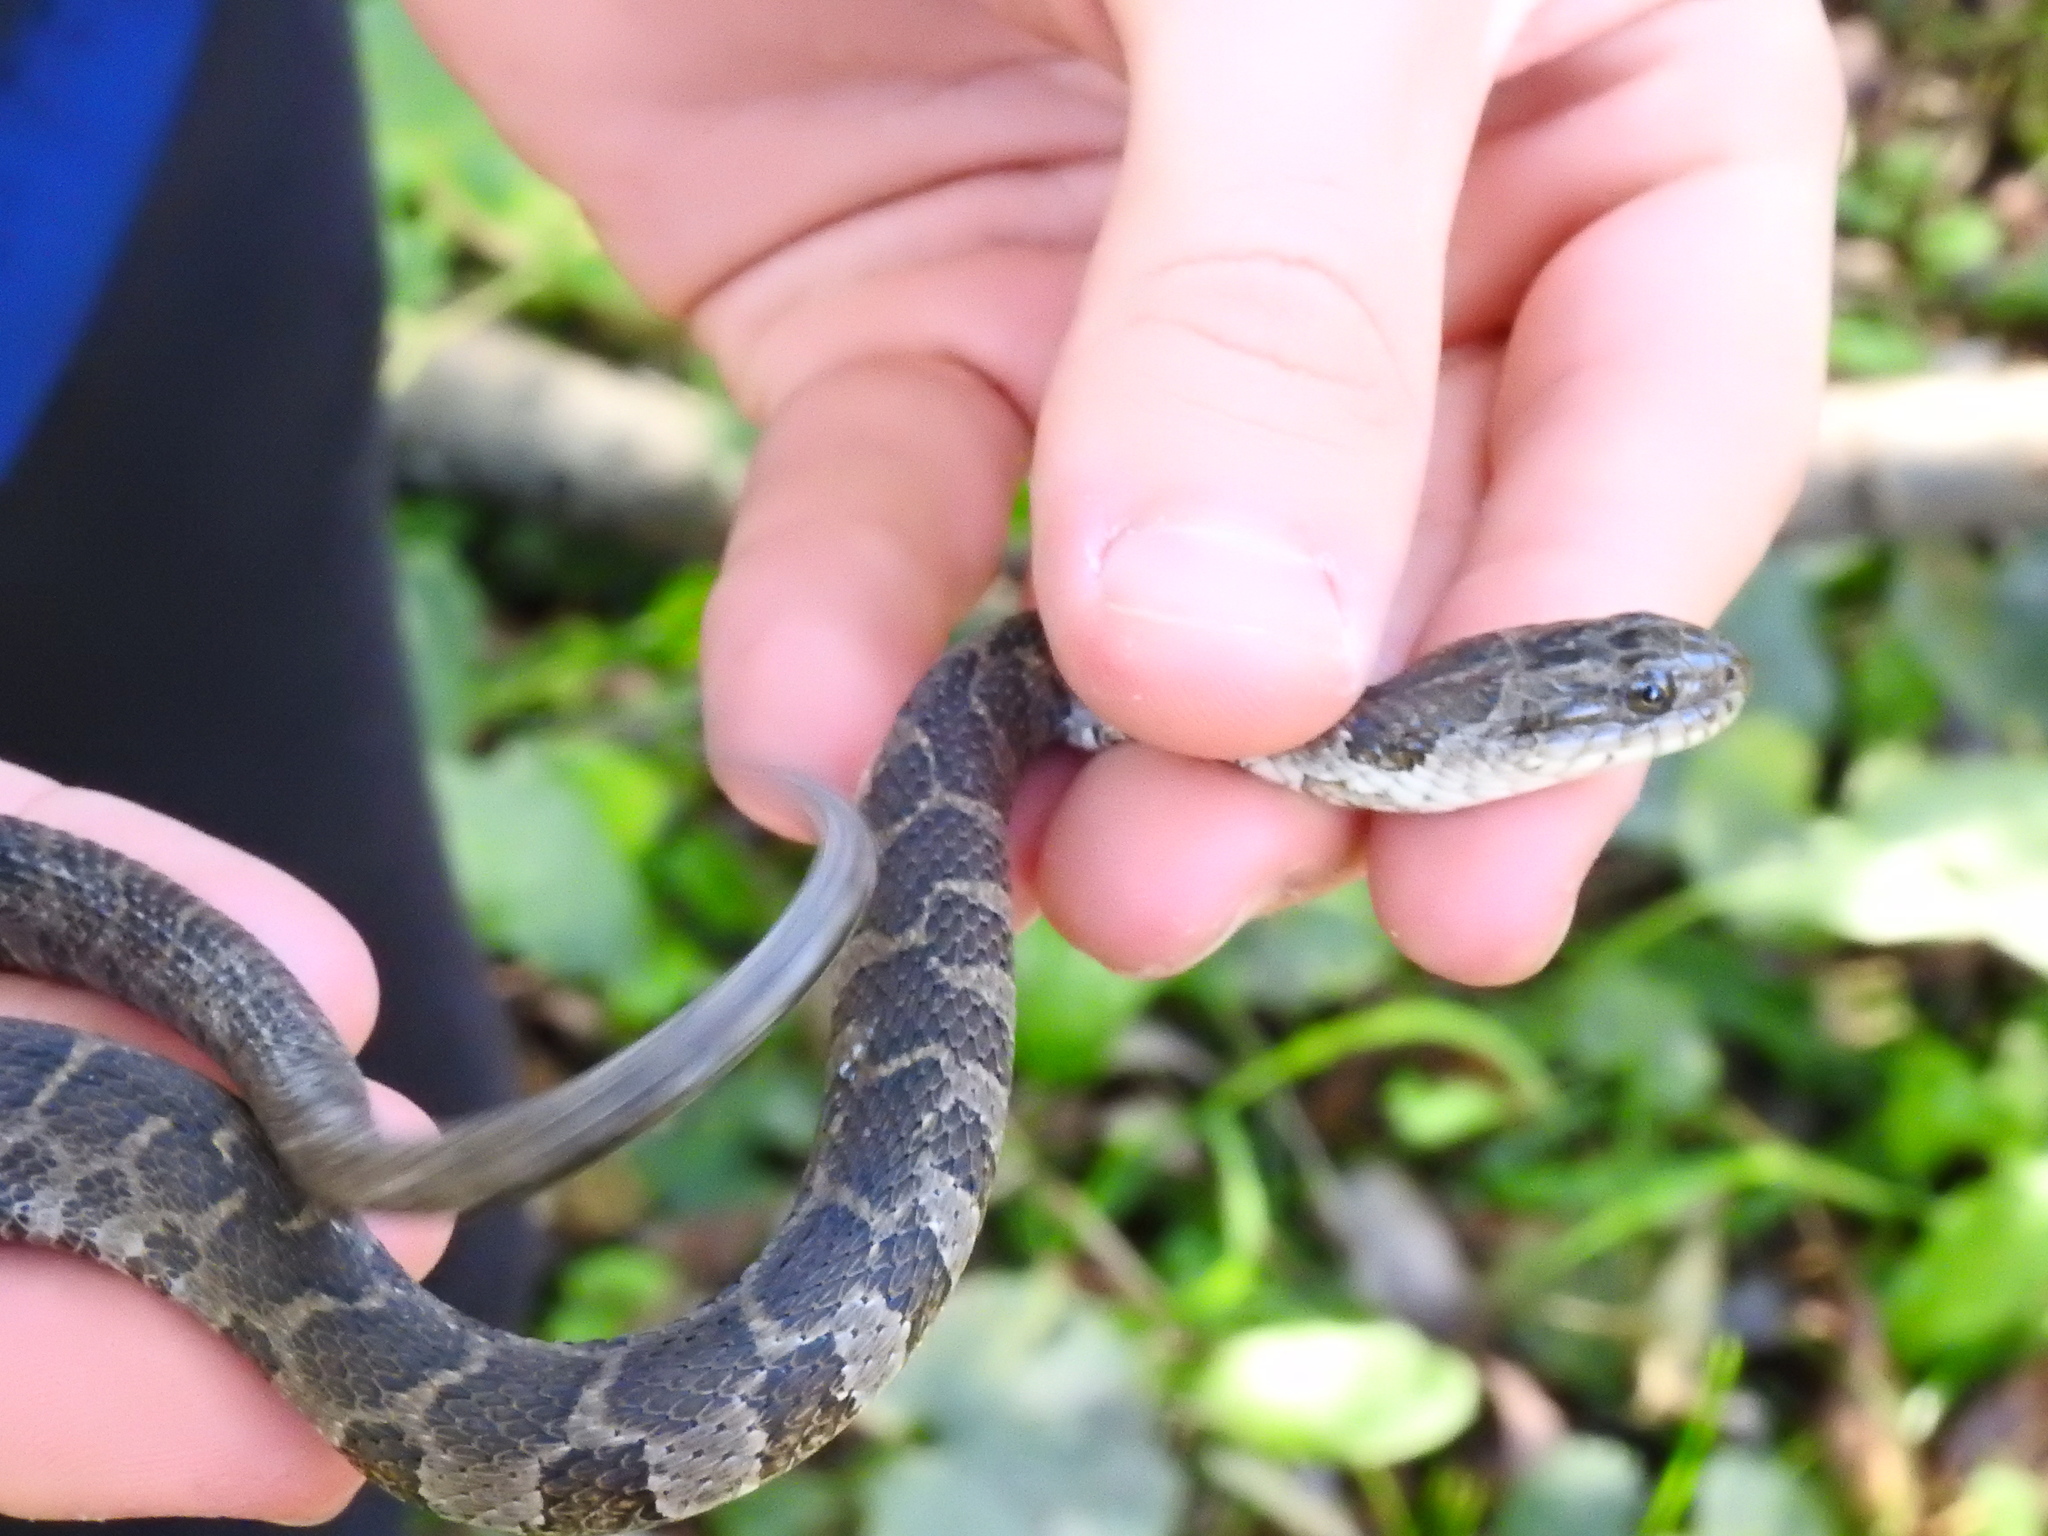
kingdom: Animalia
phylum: Chordata
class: Squamata
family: Colubridae
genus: Nerodia
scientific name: Nerodia sipedon
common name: Northern water snake
